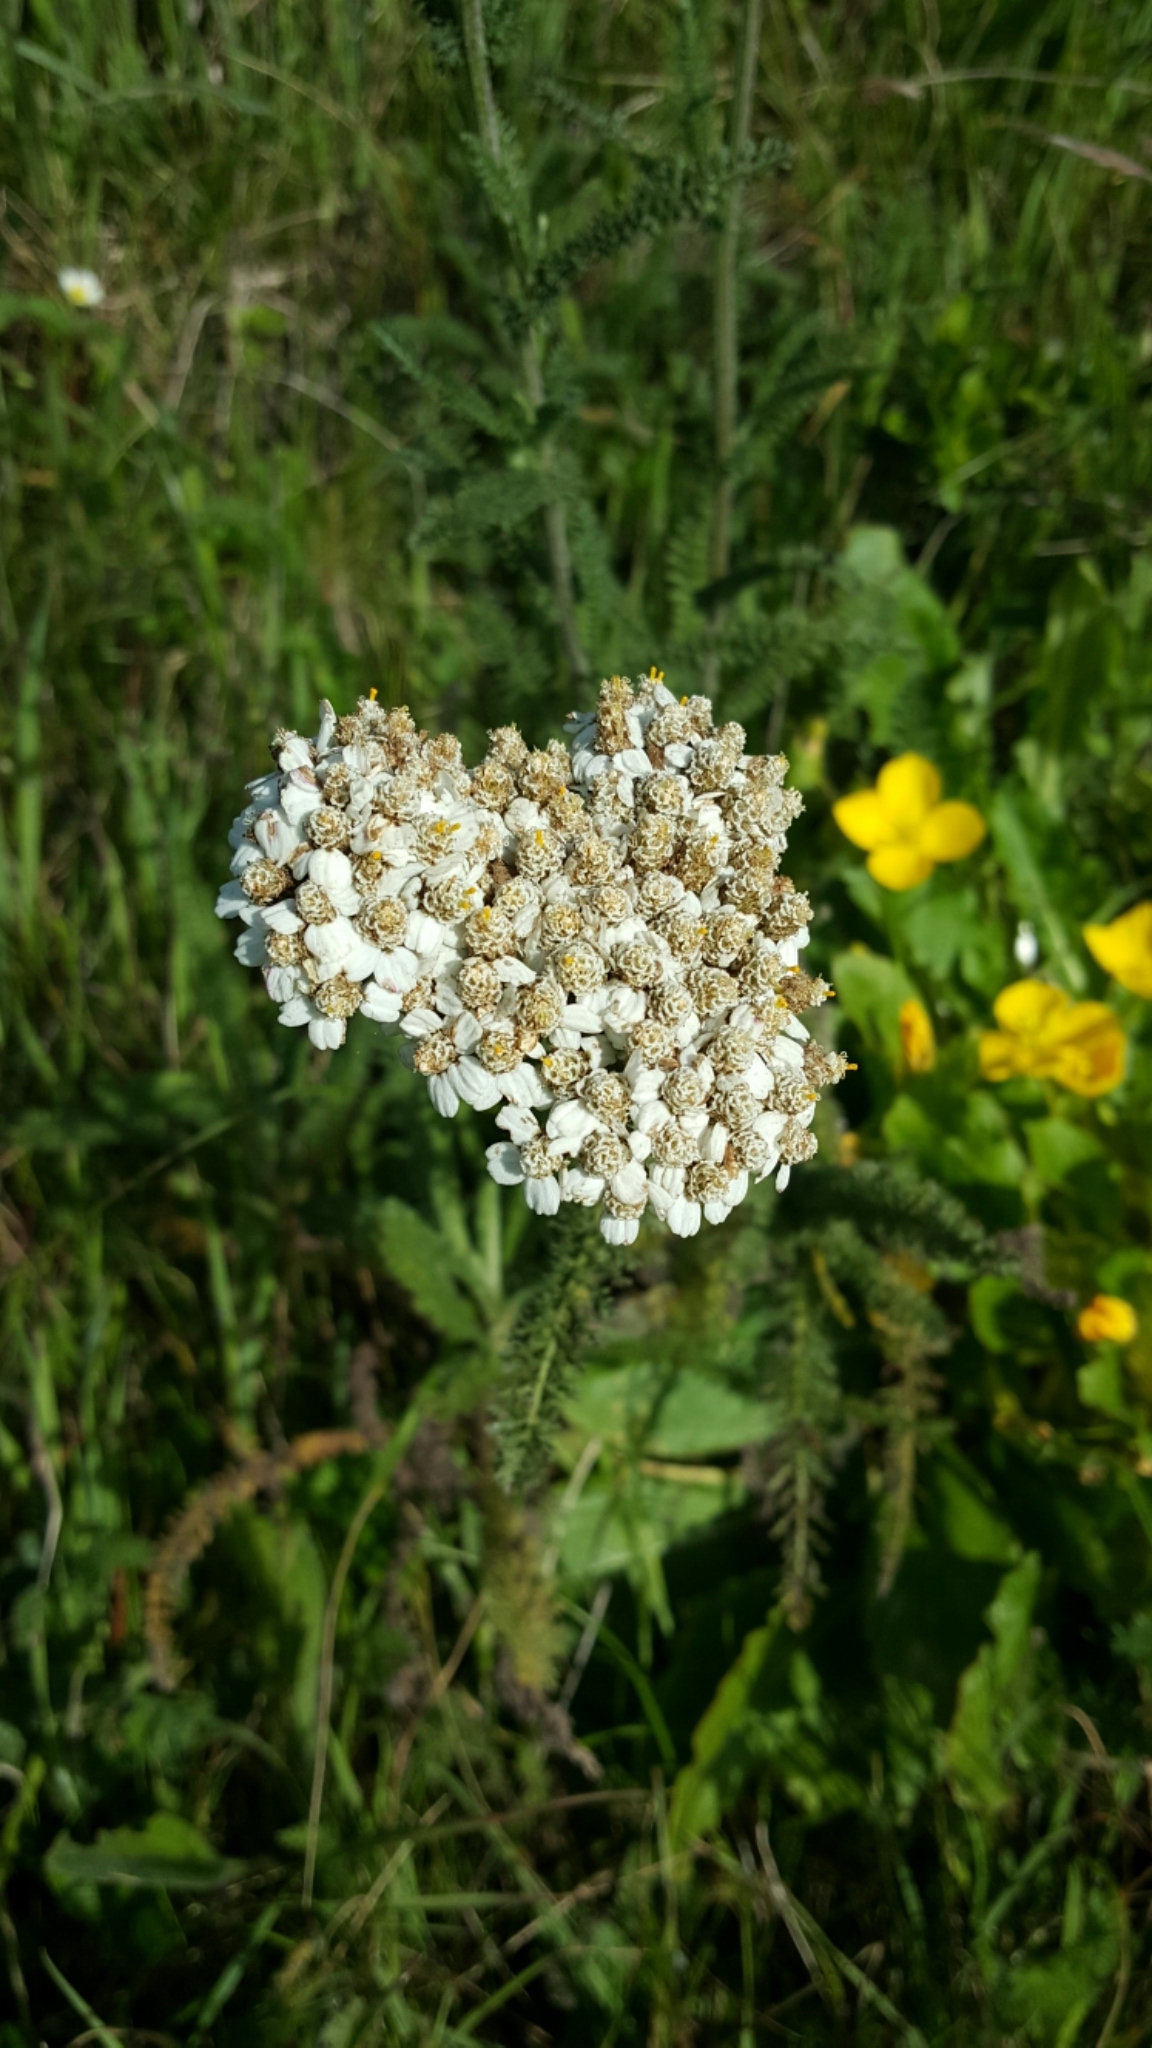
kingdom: Plantae
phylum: Tracheophyta
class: Magnoliopsida
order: Asterales
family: Asteraceae
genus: Achillea
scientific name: Achillea millefolium
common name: Yarrow
